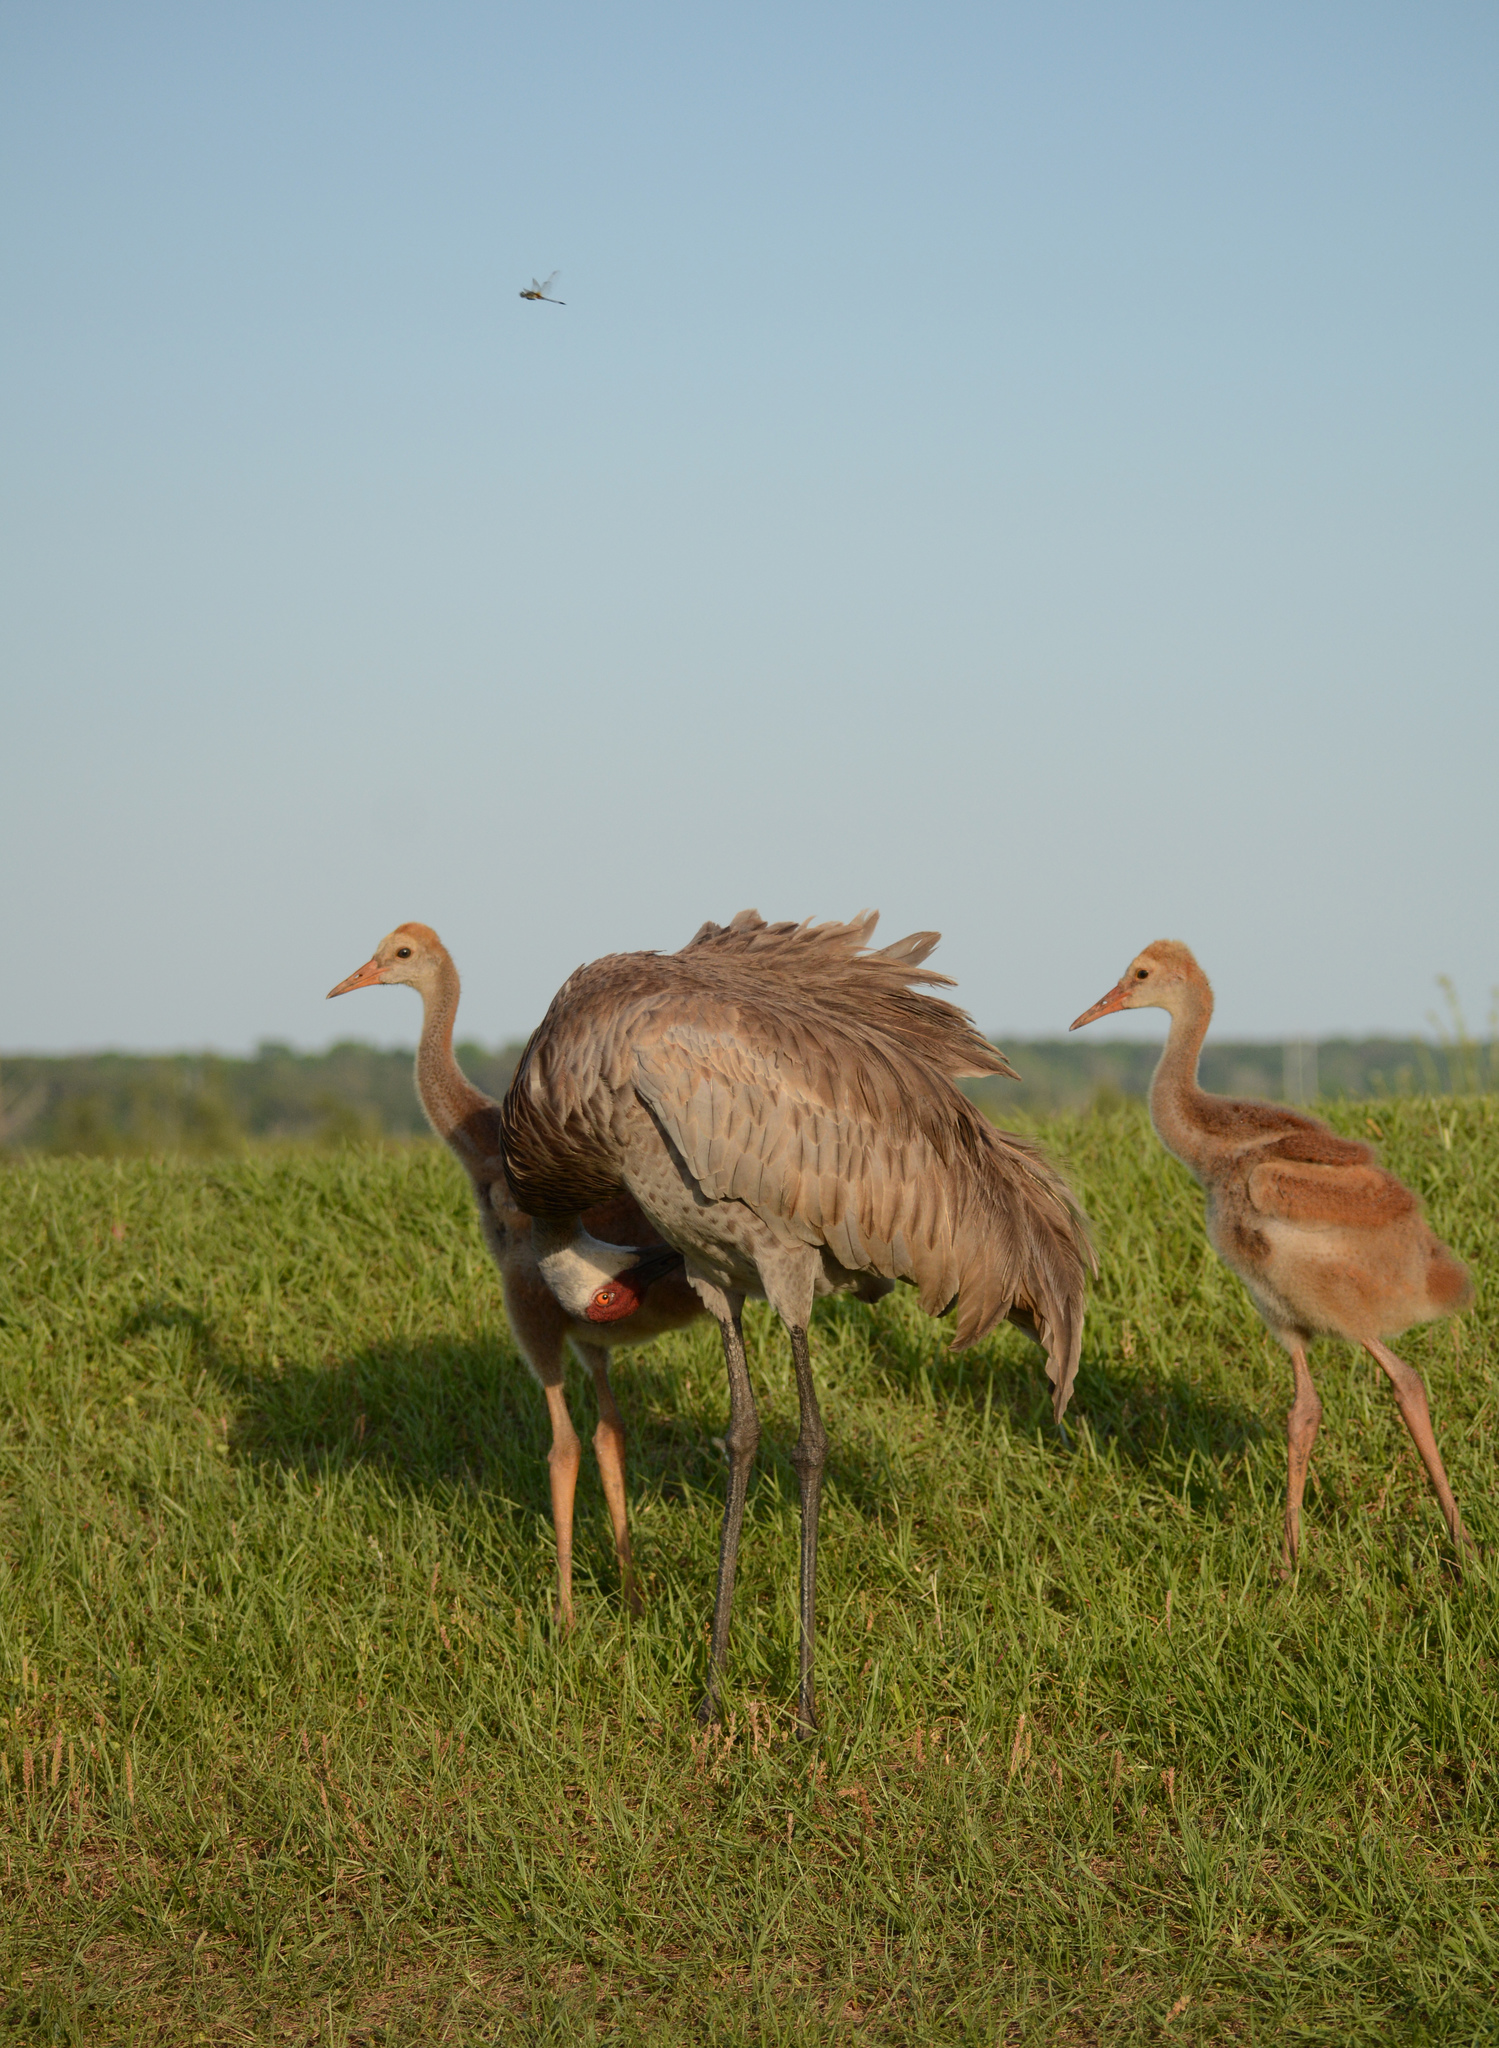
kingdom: Animalia
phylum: Chordata
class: Aves
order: Gruiformes
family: Gruidae
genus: Grus
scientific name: Grus canadensis
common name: Sandhill crane
